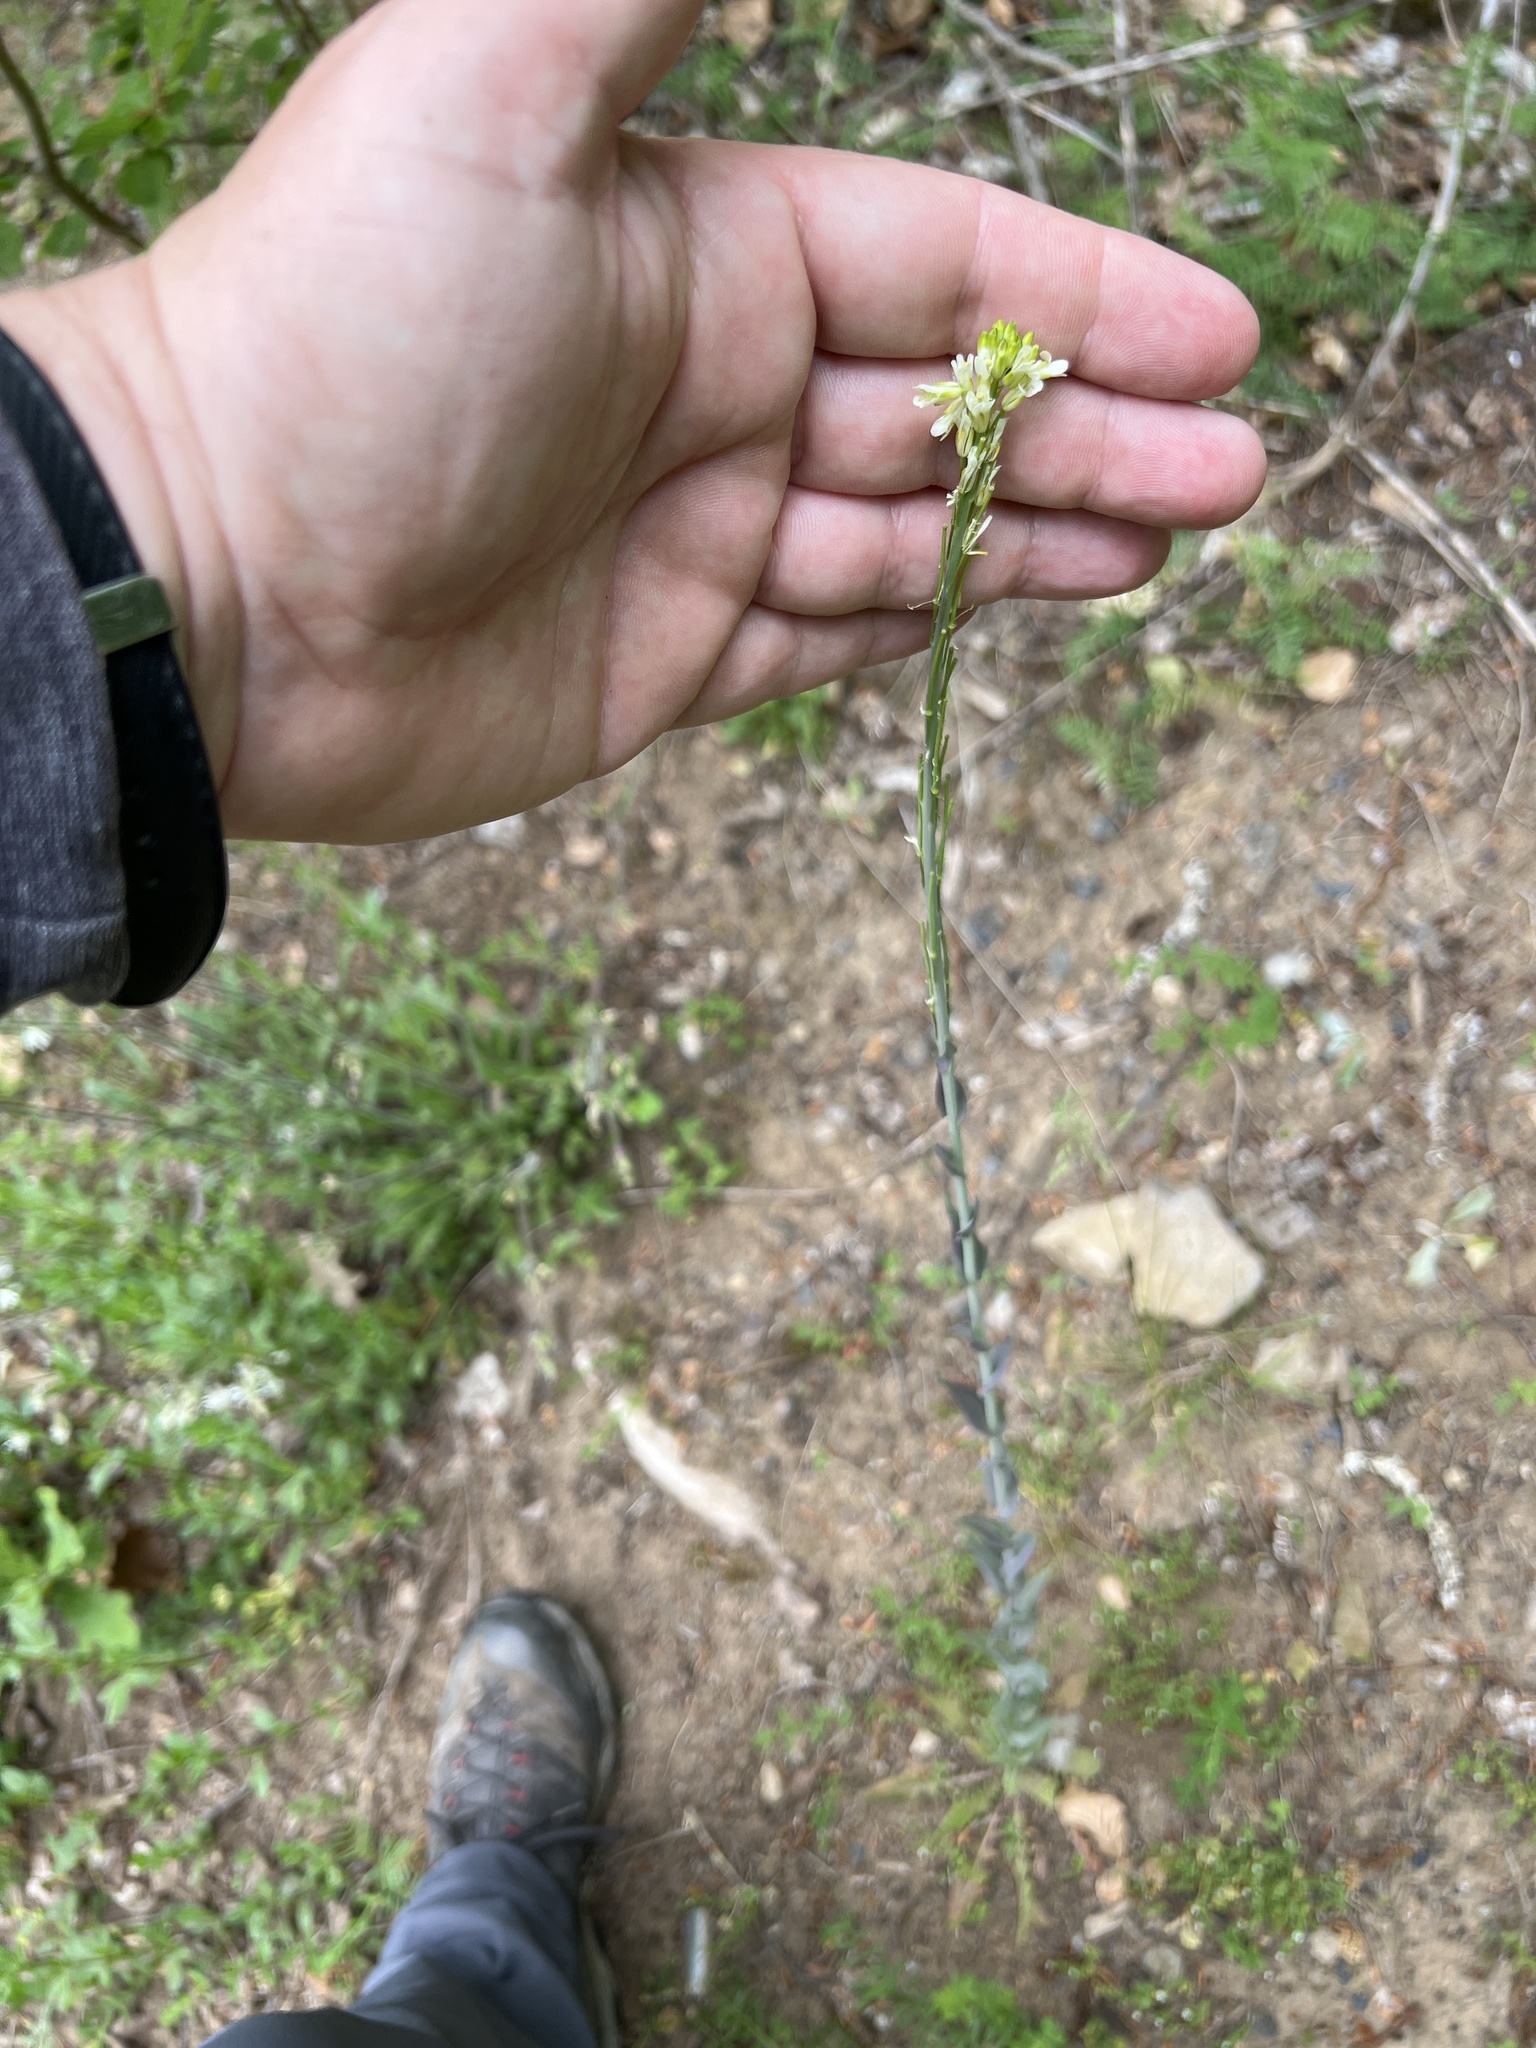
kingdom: Plantae
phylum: Tracheophyta
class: Magnoliopsida
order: Brassicales
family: Brassicaceae
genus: Turritis
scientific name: Turritis glabra
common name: Tower rockcress
